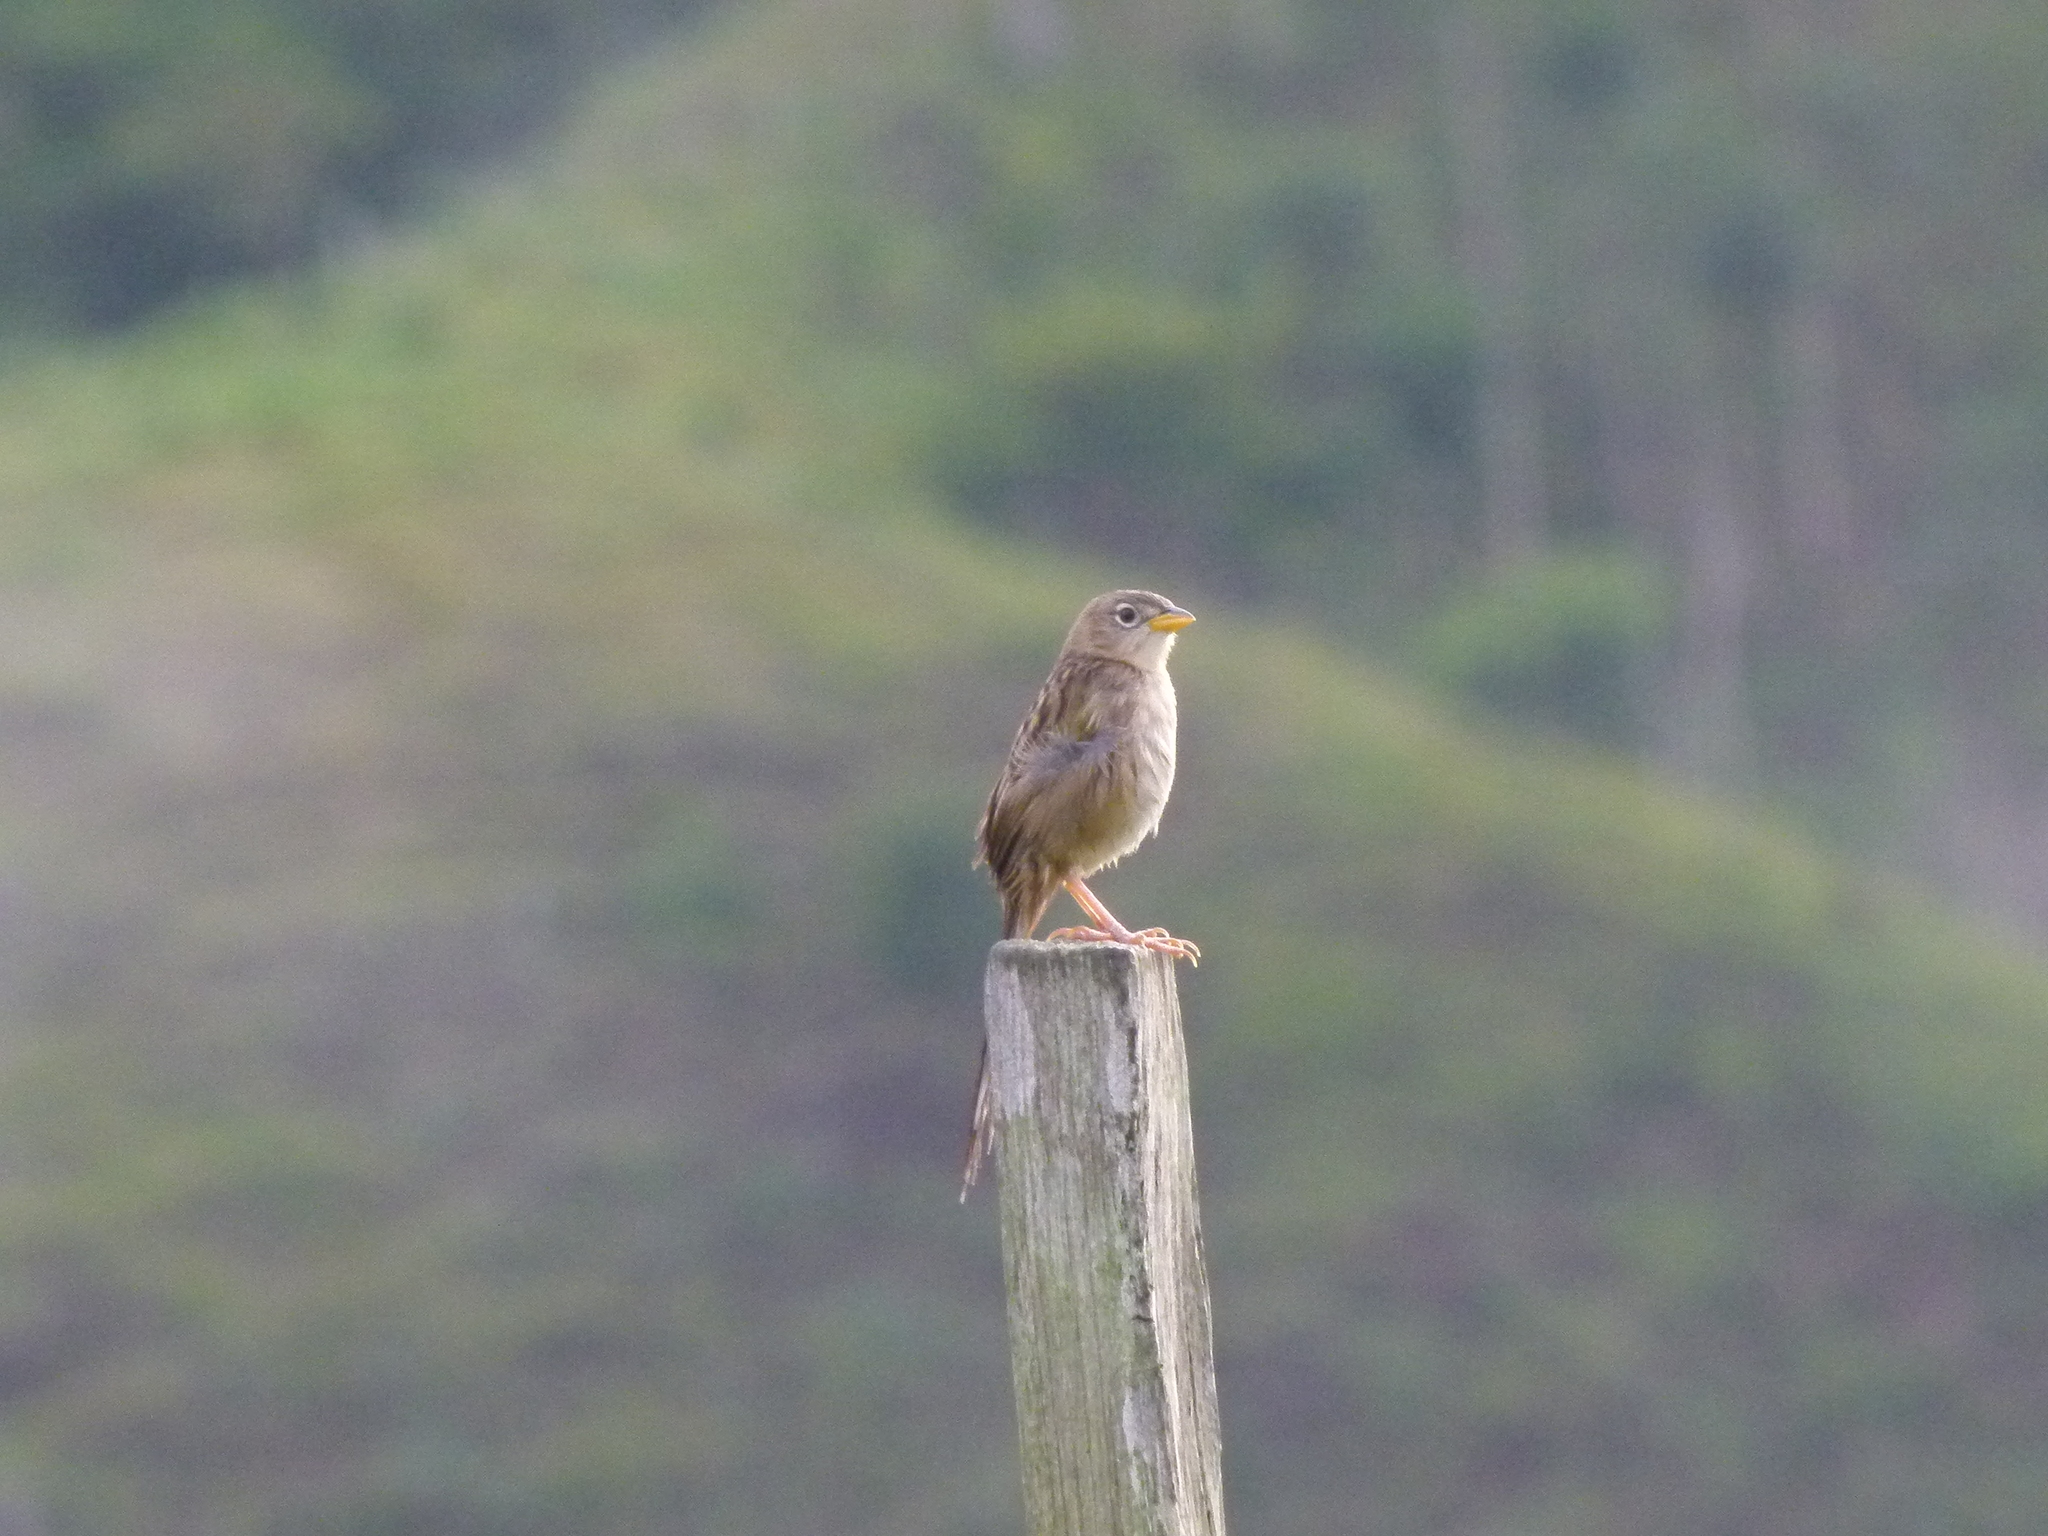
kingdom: Animalia
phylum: Chordata
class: Aves
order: Passeriformes
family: Thraupidae
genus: Emberizoides
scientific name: Emberizoides herbicola
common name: Wedge-tailed grass-finch
